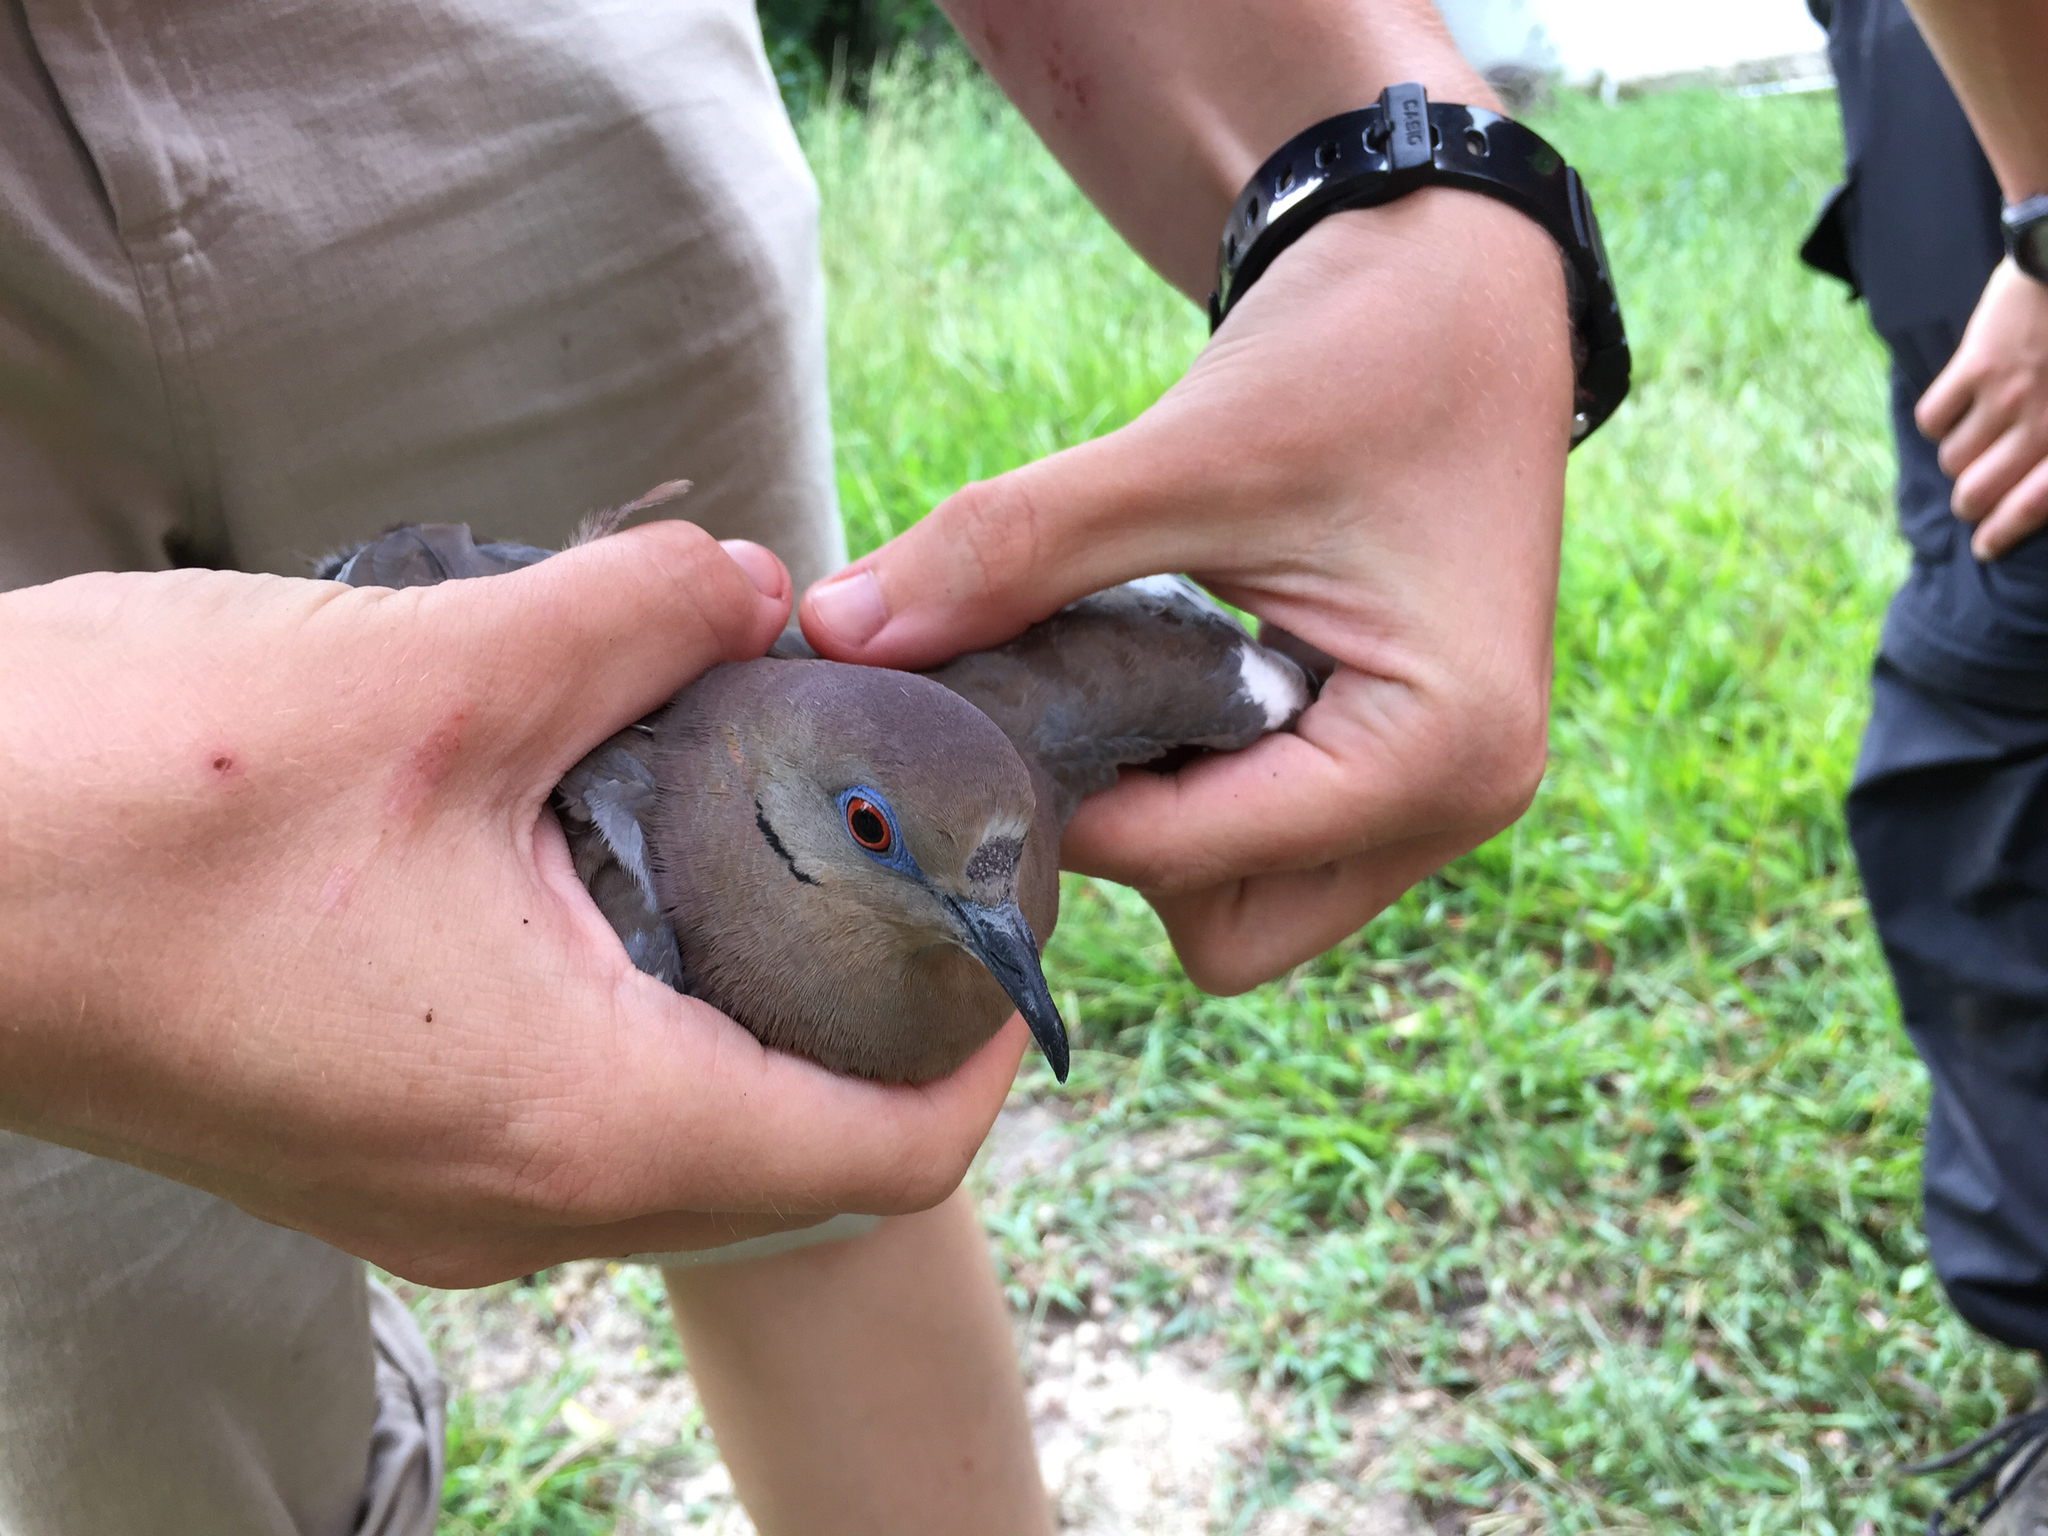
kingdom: Animalia
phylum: Chordata
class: Aves
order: Columbiformes
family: Columbidae
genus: Zenaida
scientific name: Zenaida asiatica
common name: White-winged dove
